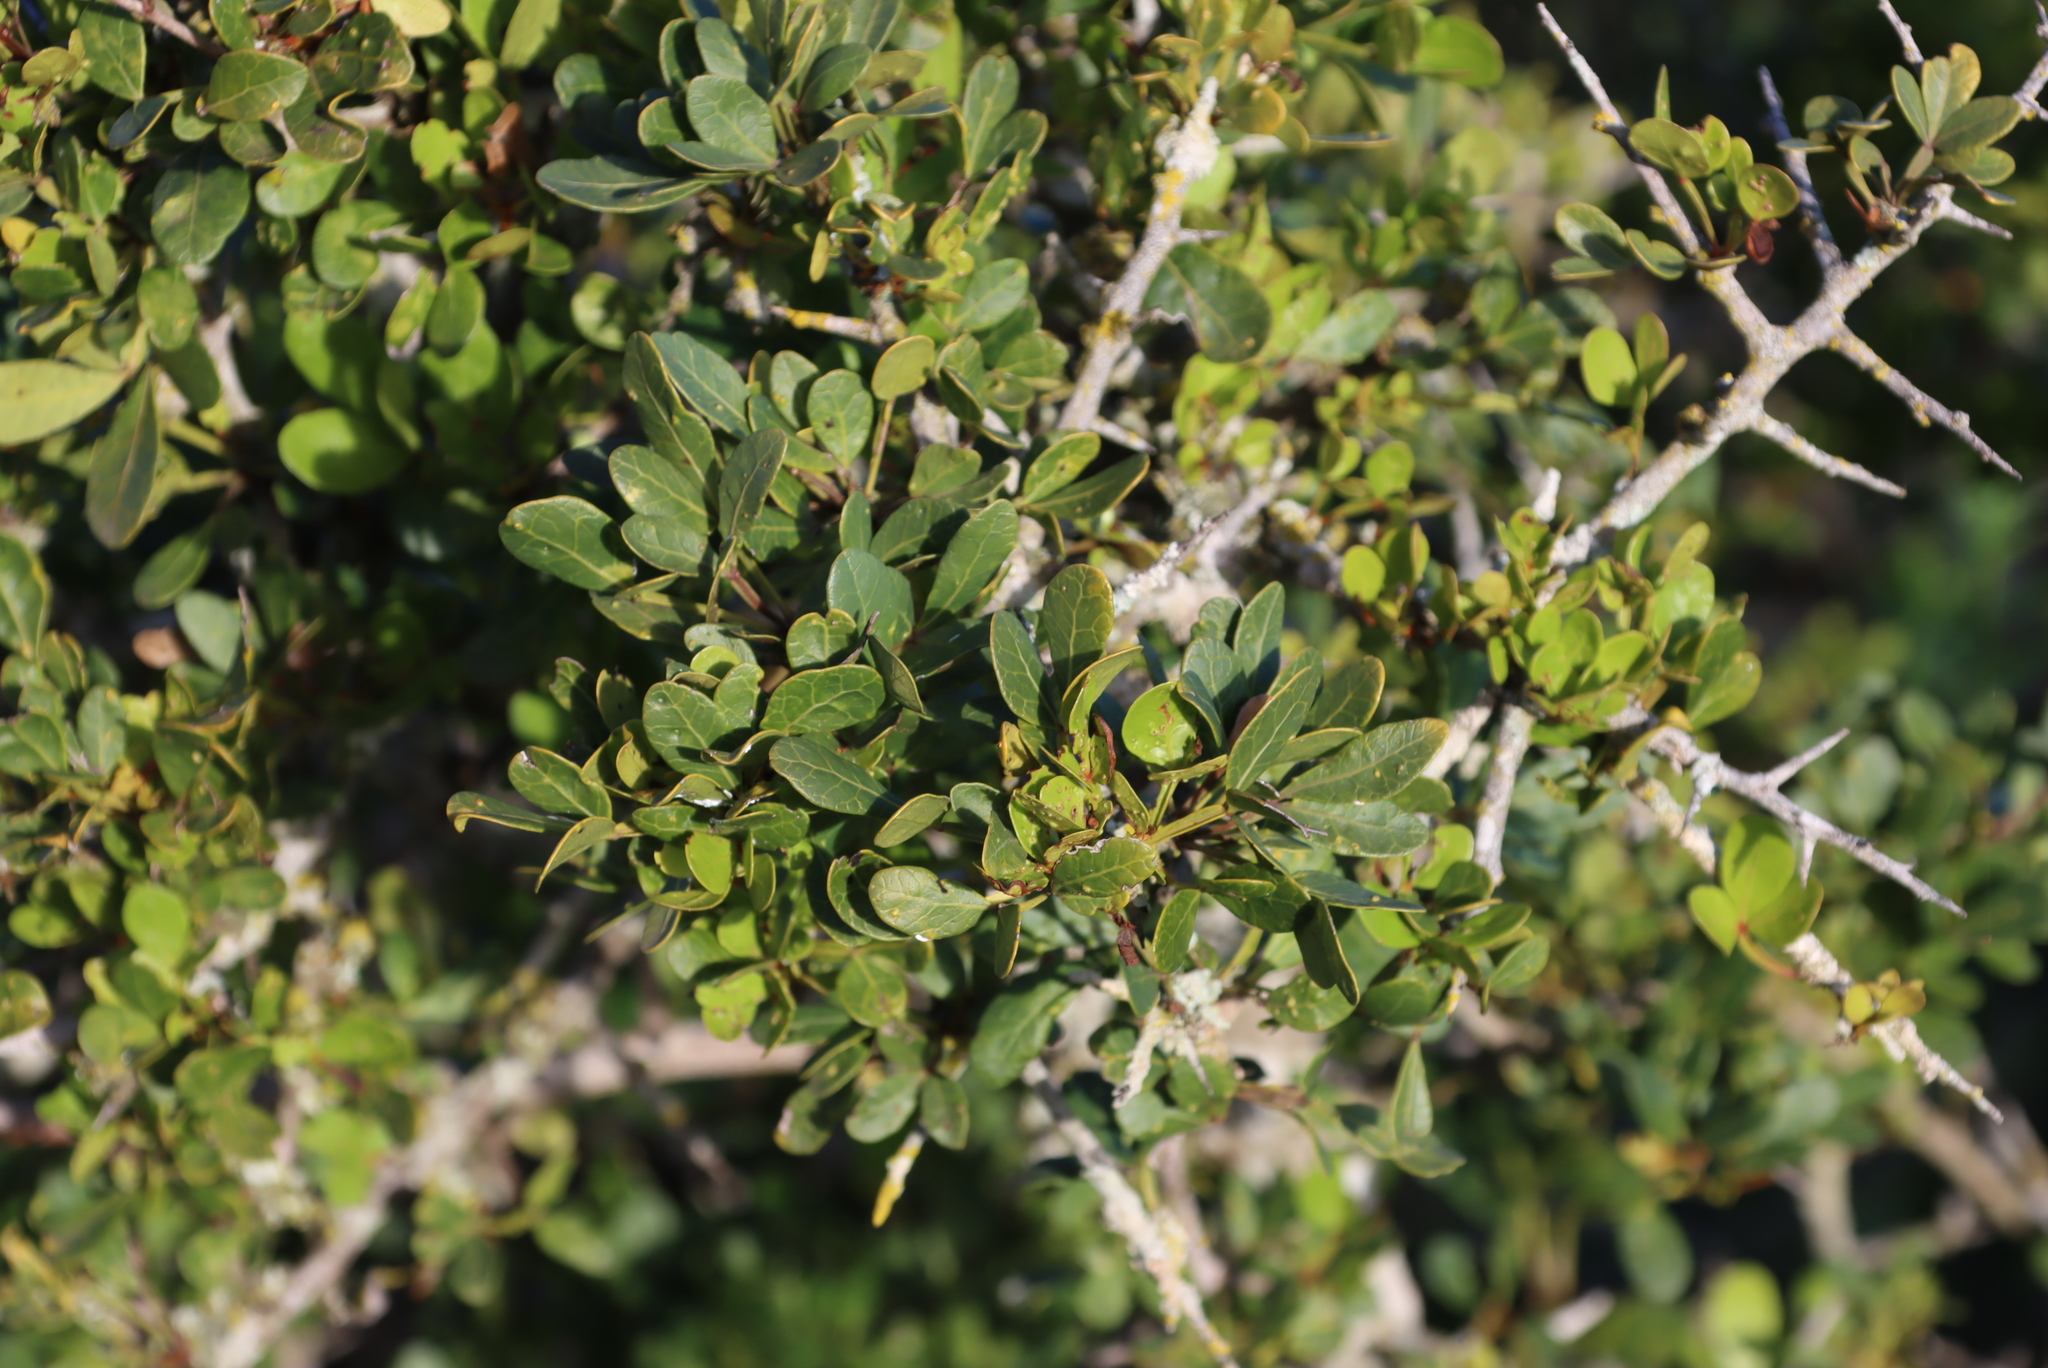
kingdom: Plantae
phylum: Tracheophyta
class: Magnoliopsida
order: Sapindales
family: Anacardiaceae
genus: Searsia
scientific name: Searsia pterota
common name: Winged currant
